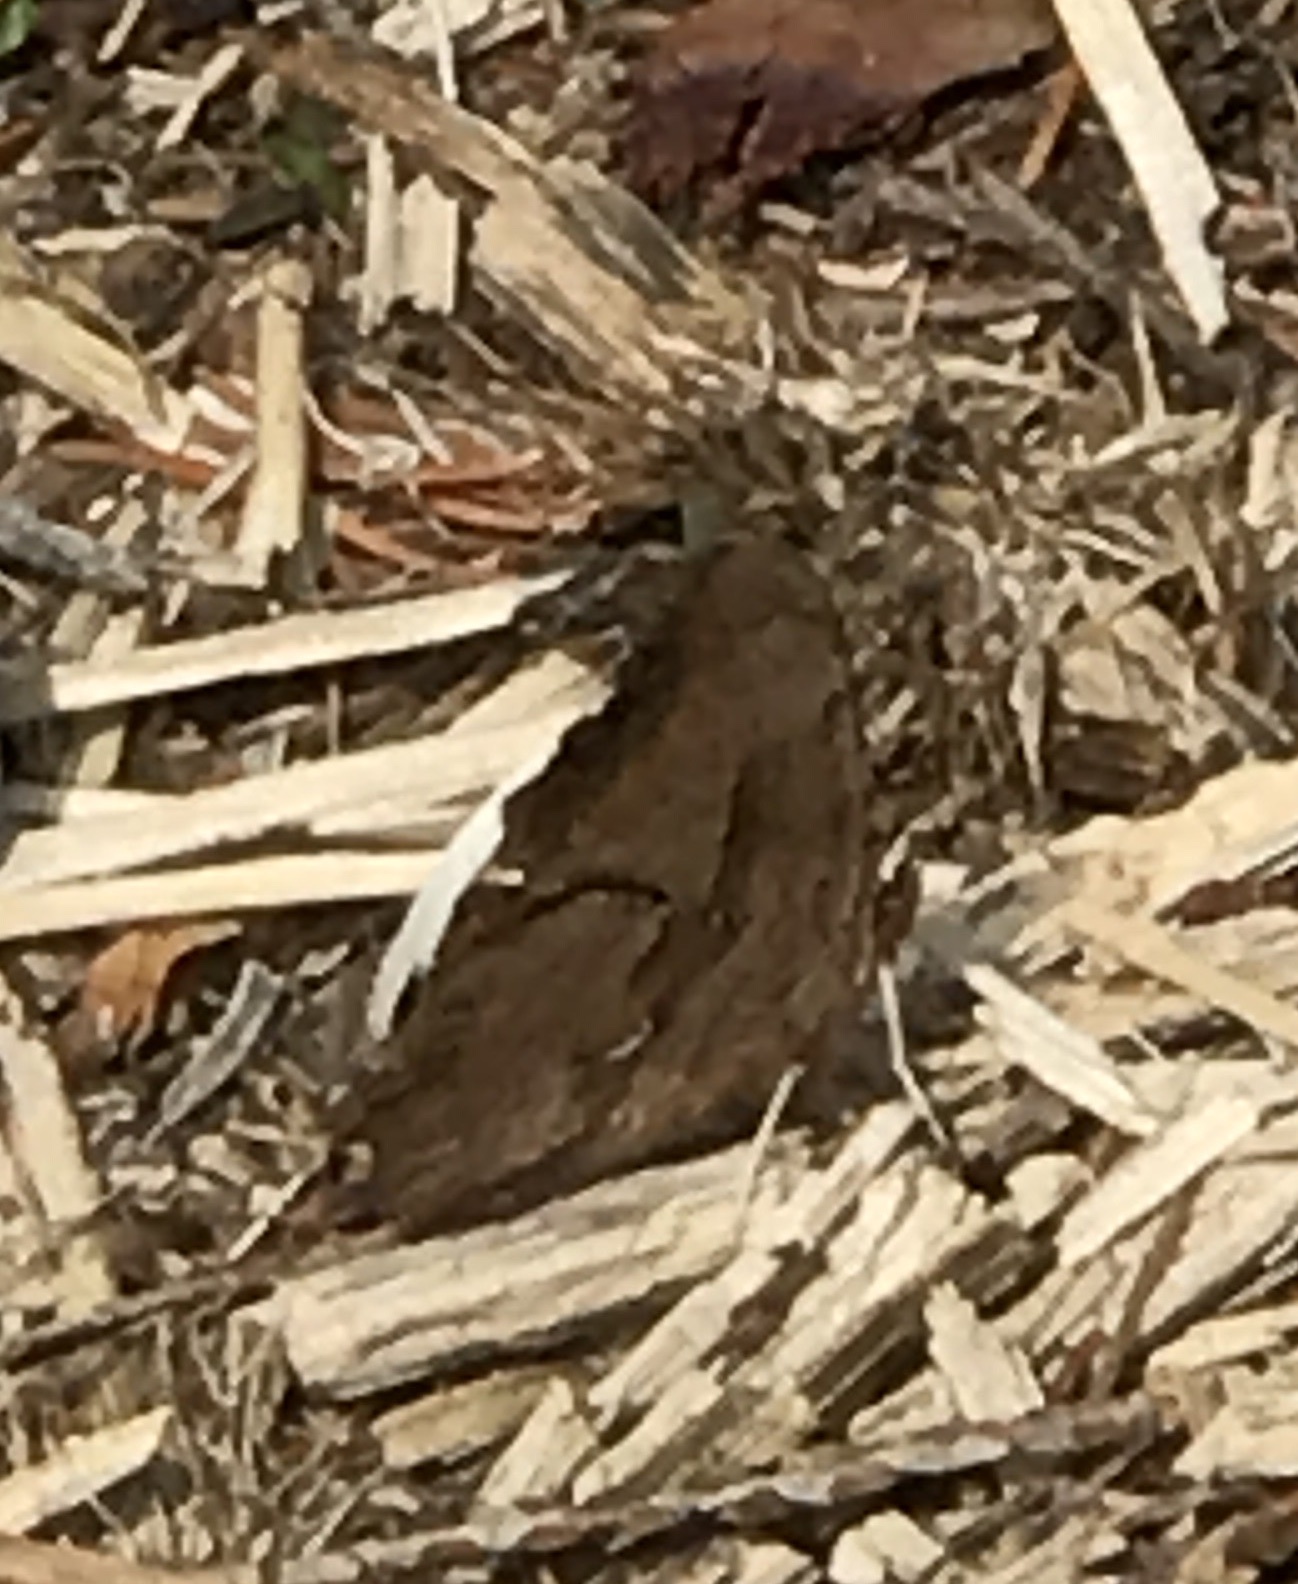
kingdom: Animalia
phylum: Arthropoda
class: Insecta
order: Lepidoptera
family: Nymphalidae
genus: Polygonia
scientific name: Polygonia satyrus
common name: Satyr angle wing
